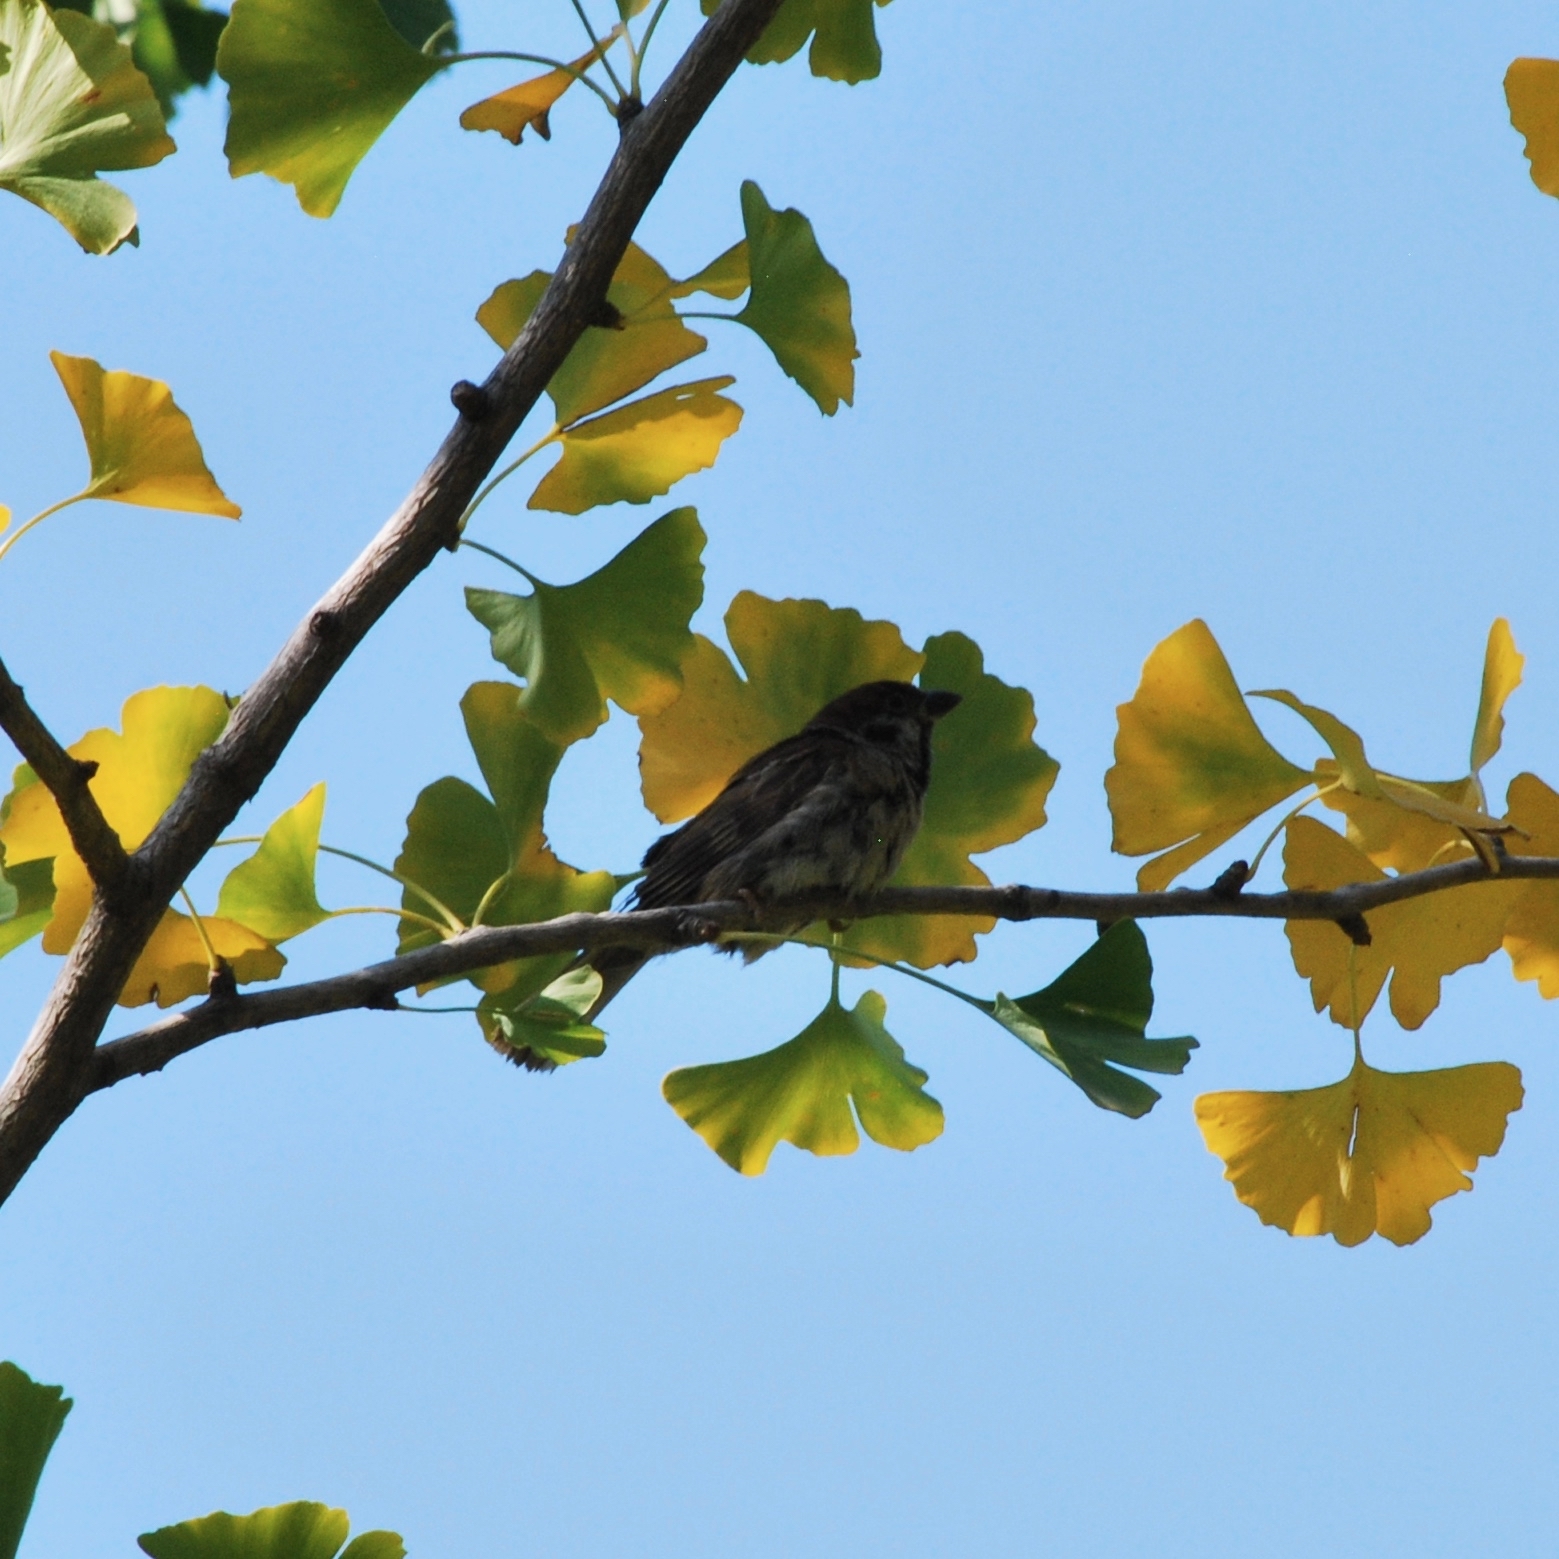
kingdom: Animalia
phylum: Chordata
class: Aves
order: Passeriformes
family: Passeridae
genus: Passer
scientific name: Passer montanus
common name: Eurasian tree sparrow
